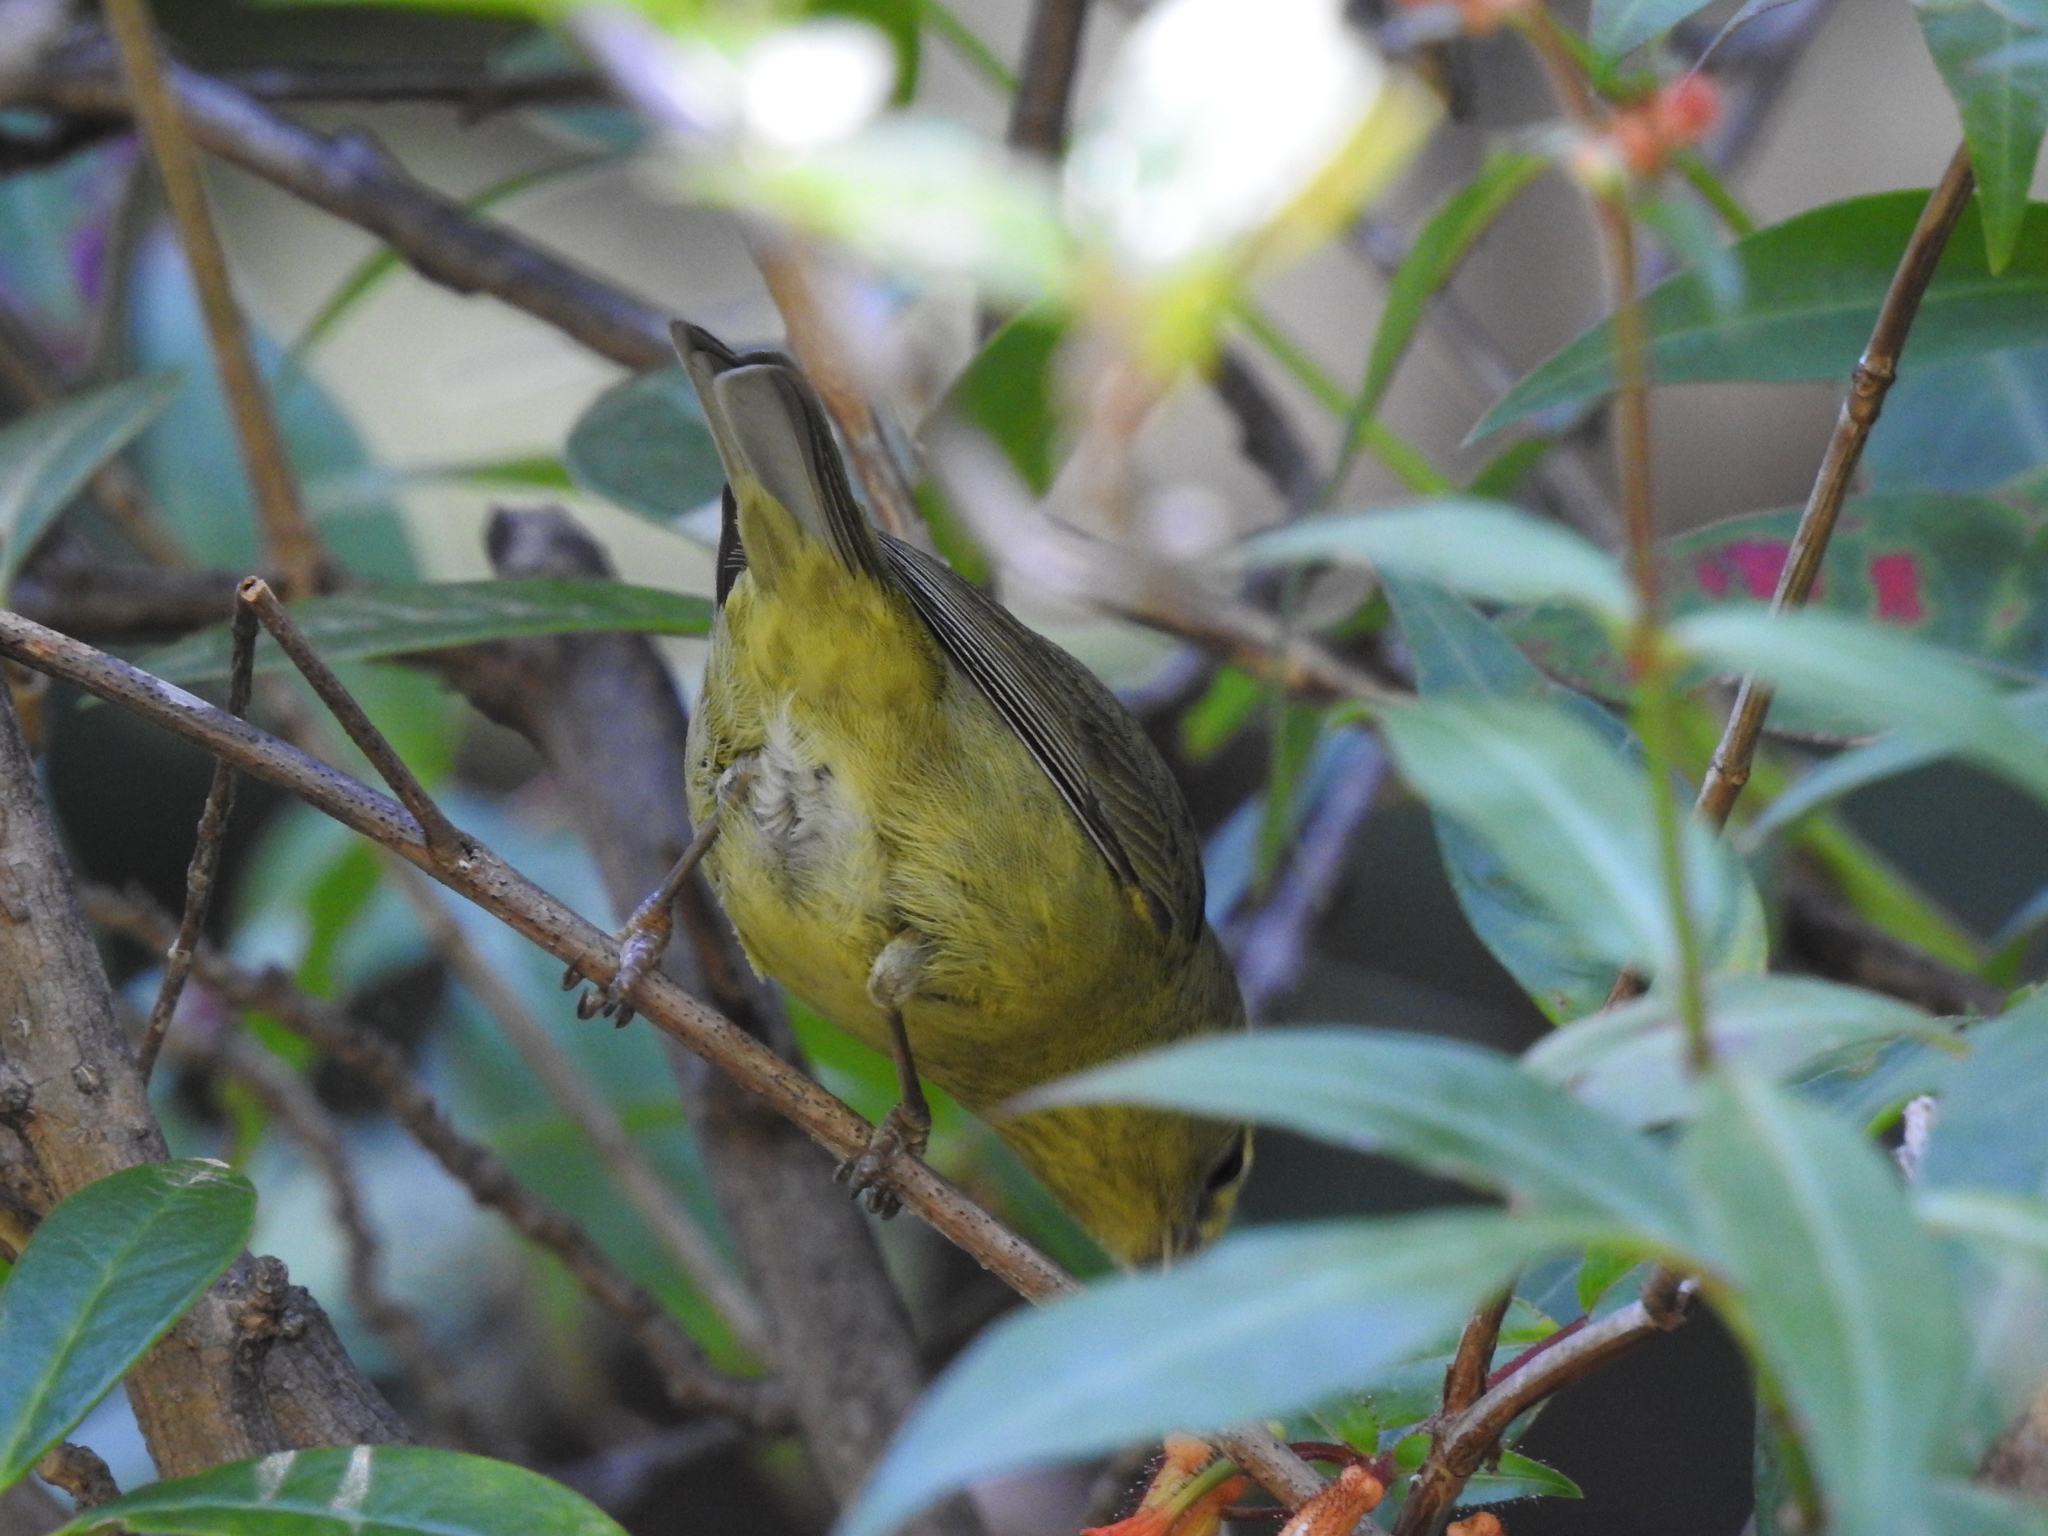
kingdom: Animalia
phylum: Chordata
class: Aves
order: Passeriformes
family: Parulidae
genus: Leiothlypis
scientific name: Leiothlypis celata
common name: Orange-crowned warbler
